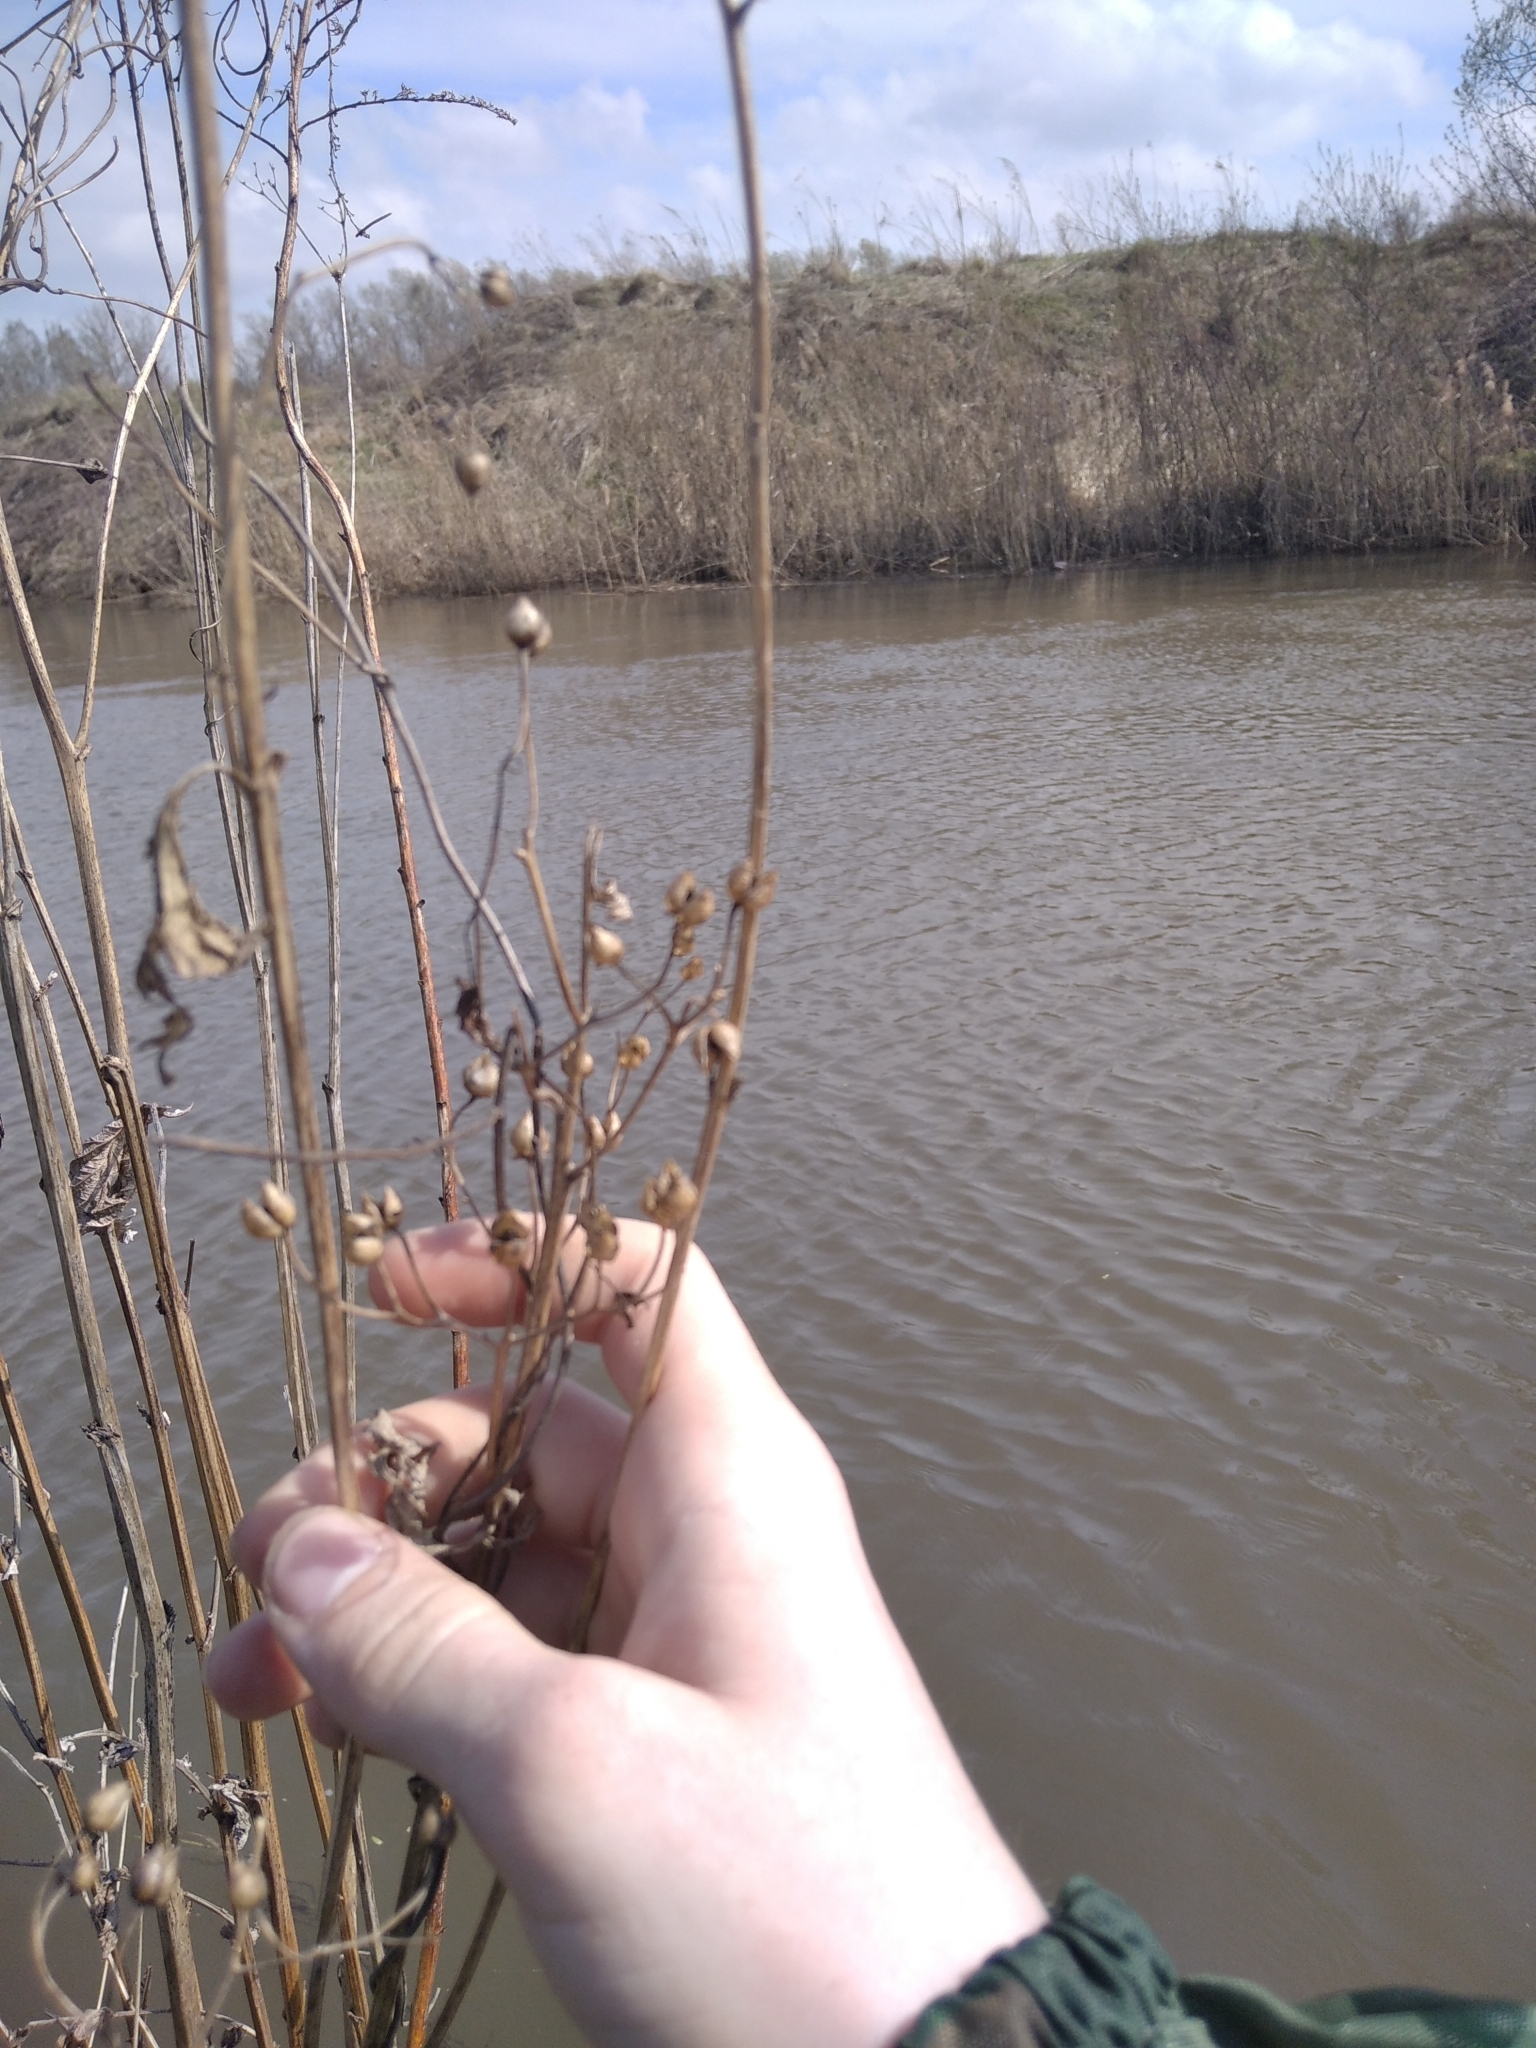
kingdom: Plantae
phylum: Tracheophyta
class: Magnoliopsida
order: Lamiales
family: Scrophulariaceae
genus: Scrophularia
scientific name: Scrophularia umbrosa
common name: Green figwort
